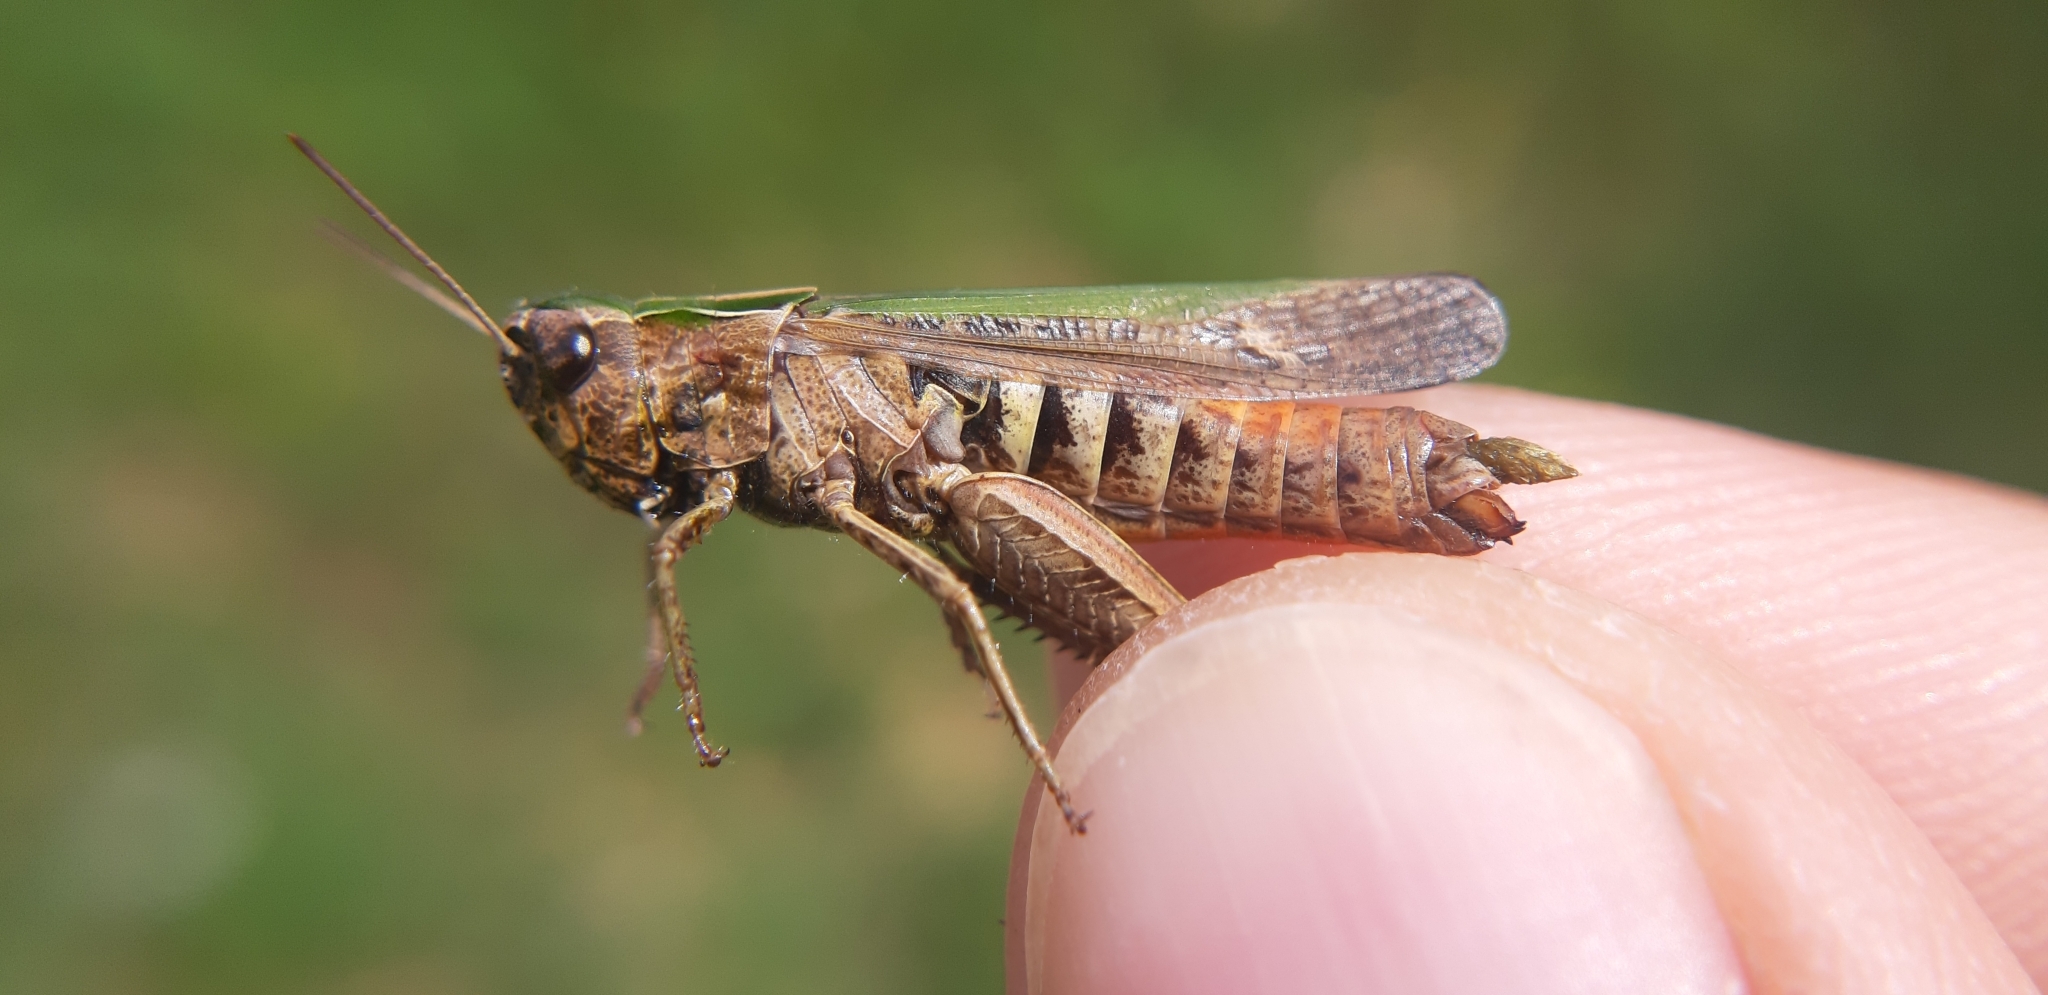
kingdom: Animalia
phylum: Arthropoda
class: Insecta
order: Orthoptera
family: Acrididae
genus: Omocestus
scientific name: Omocestus rufipes
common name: Woodland grasshopper
